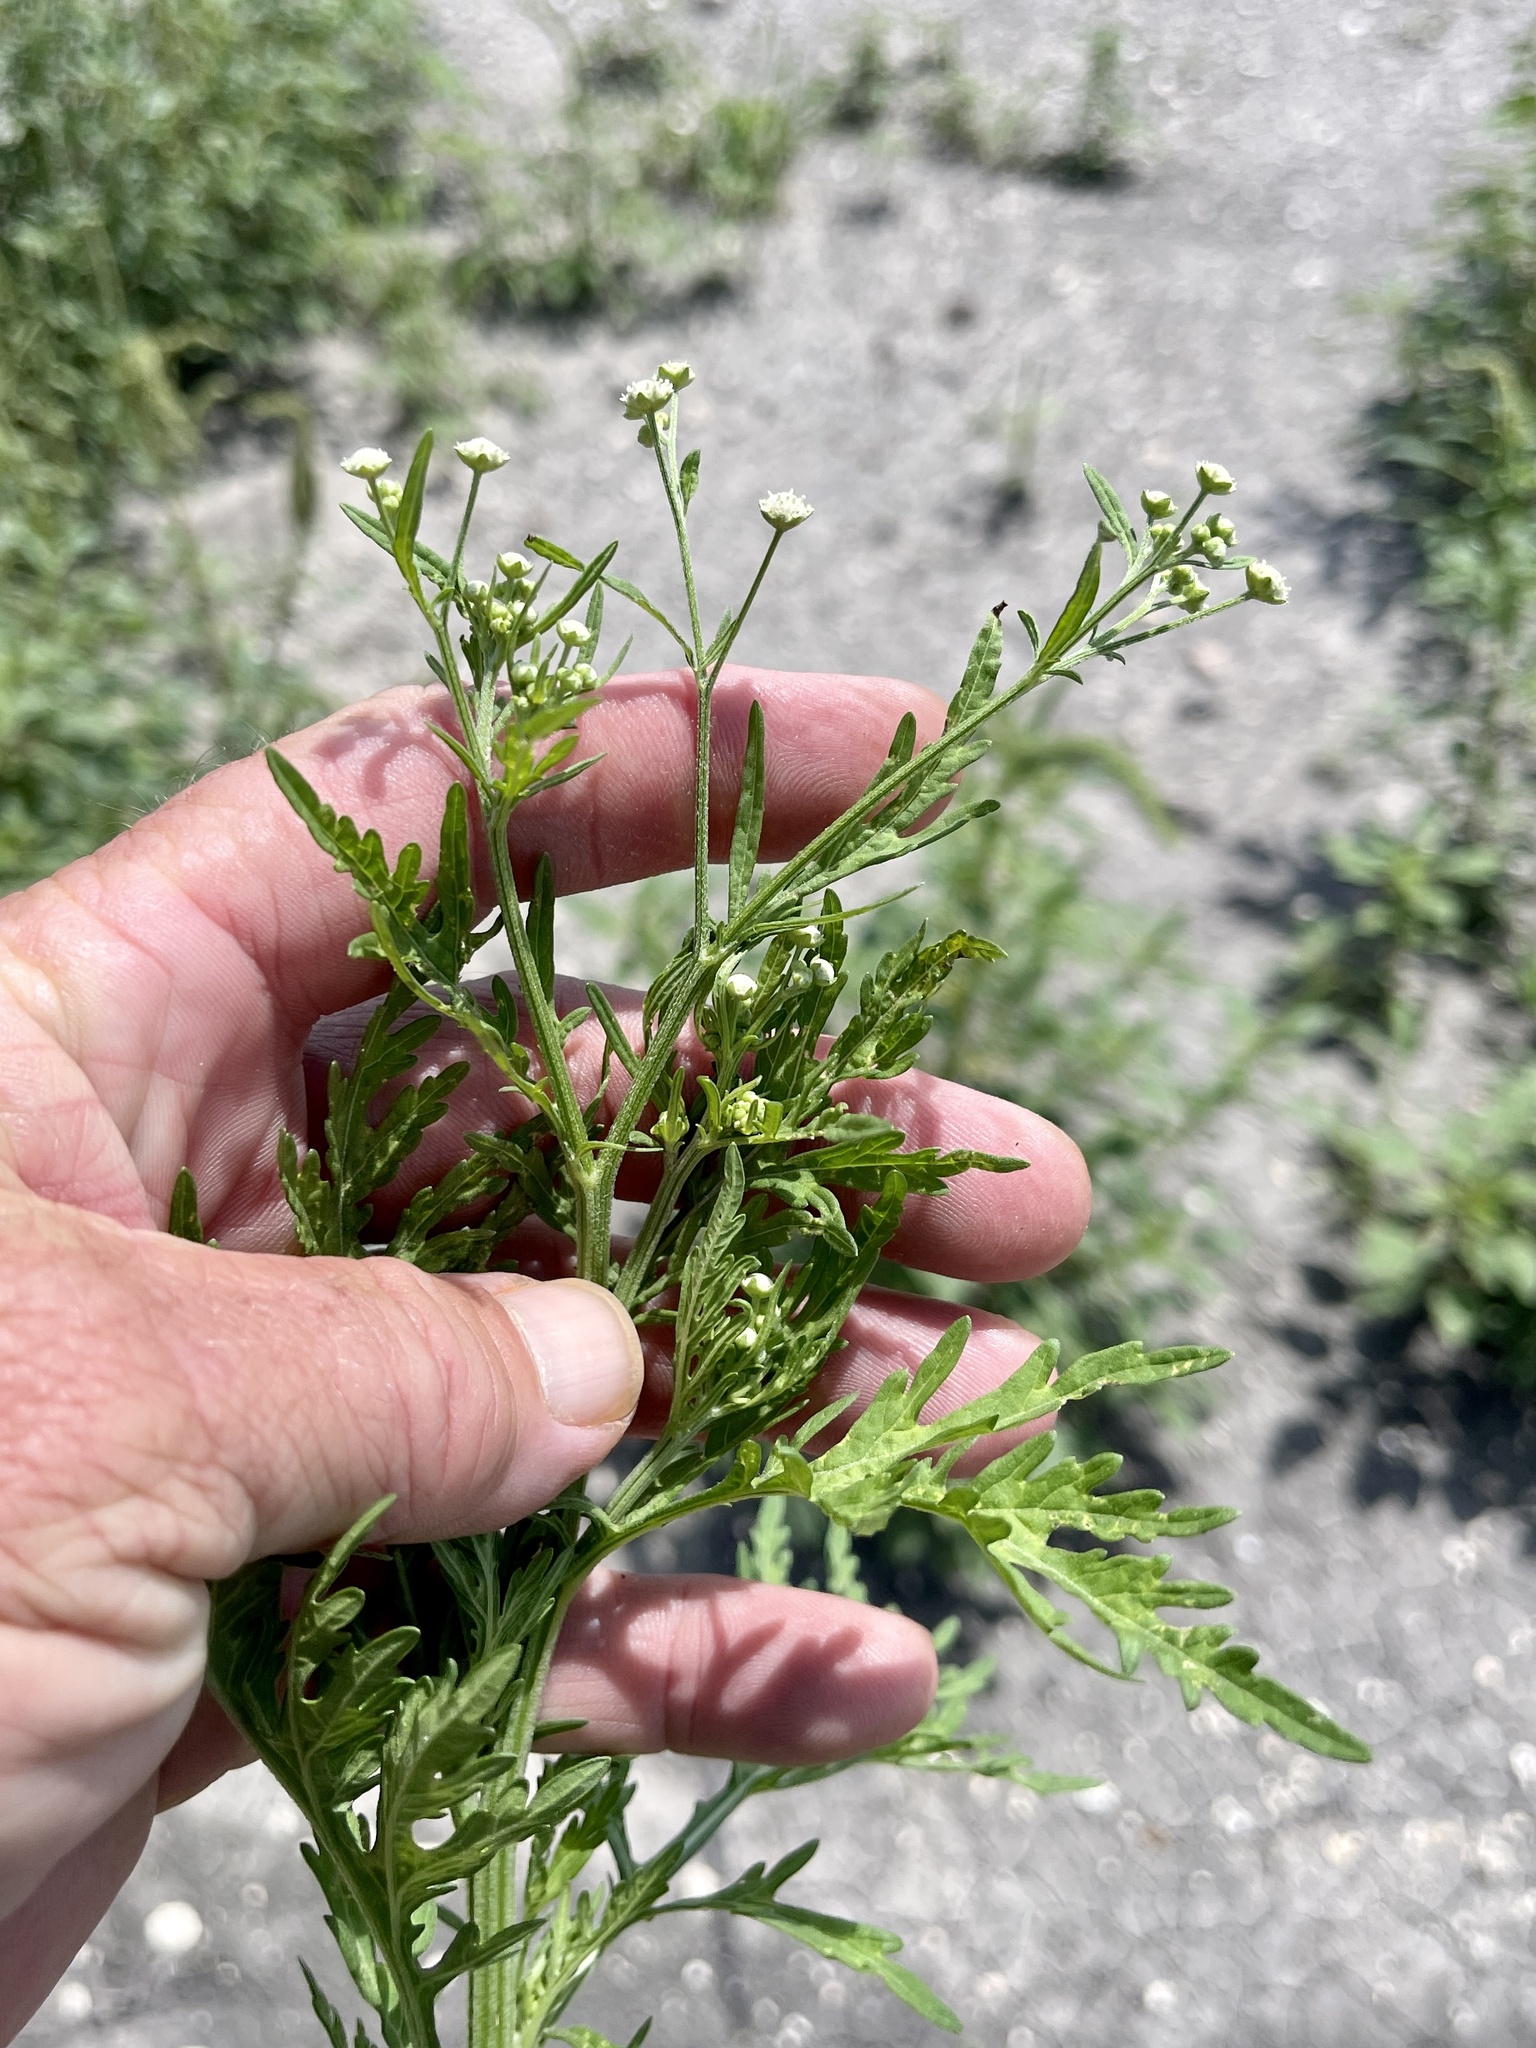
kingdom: Plantae
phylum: Tracheophyta
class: Magnoliopsida
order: Asterales
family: Asteraceae
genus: Parthenium
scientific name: Parthenium hysterophorus
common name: Santa maria feverfew
